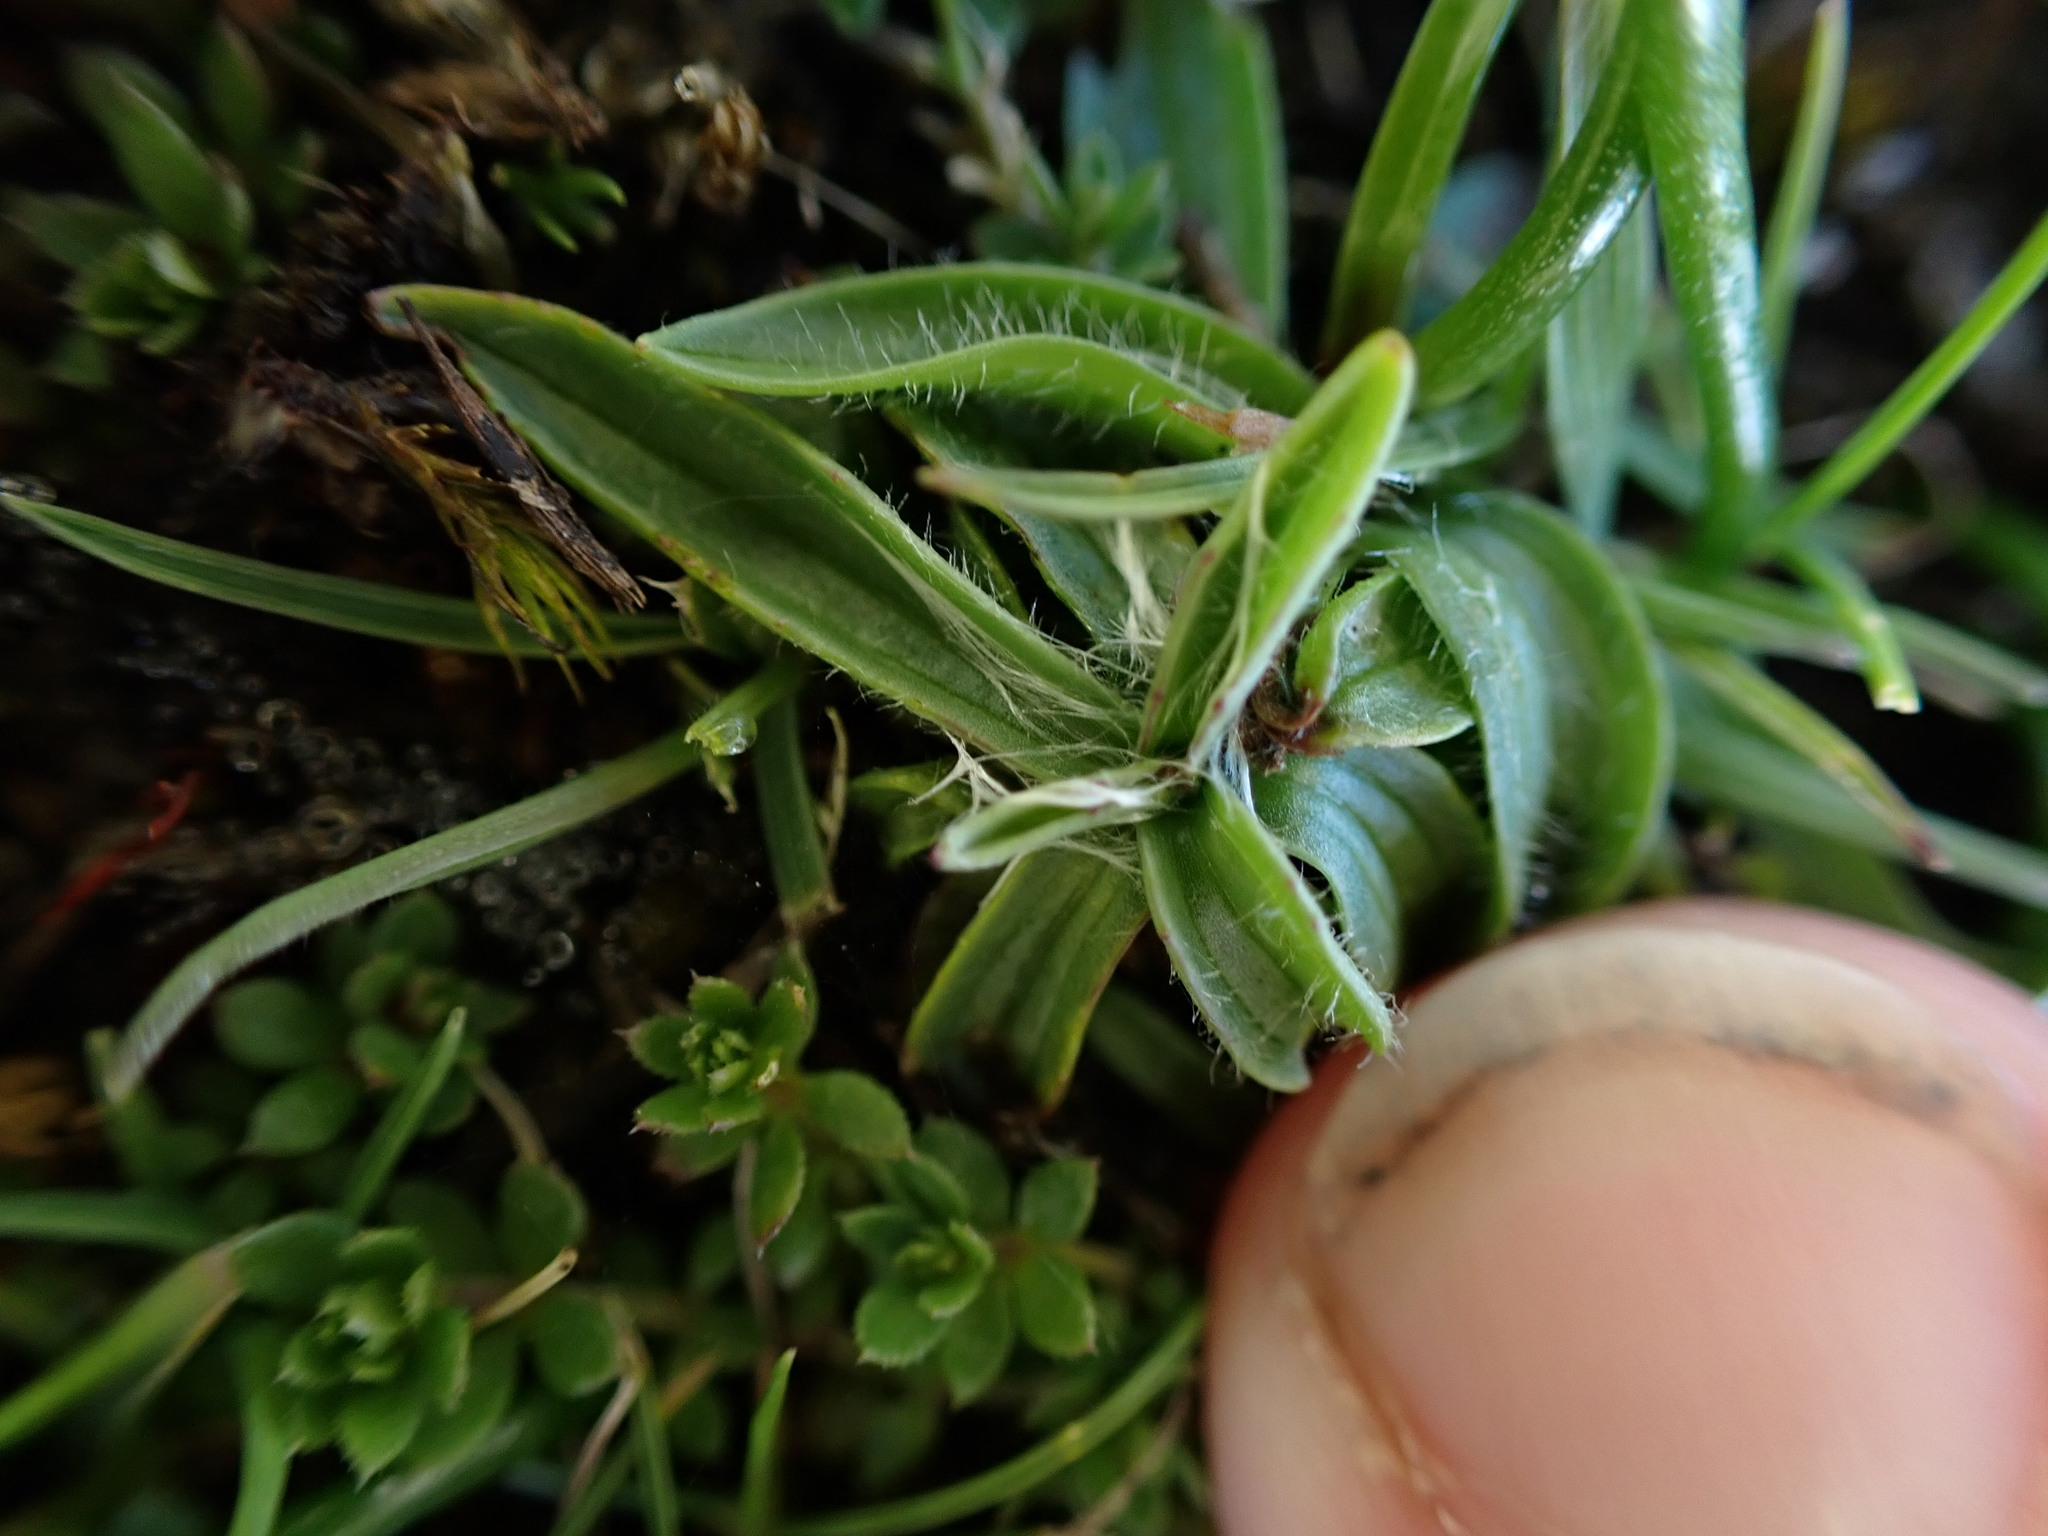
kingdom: Plantae
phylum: Tracheophyta
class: Magnoliopsida
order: Lamiales
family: Plantaginaceae
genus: Plantago
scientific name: Plantago lanceolata
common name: Ribwort plantain
